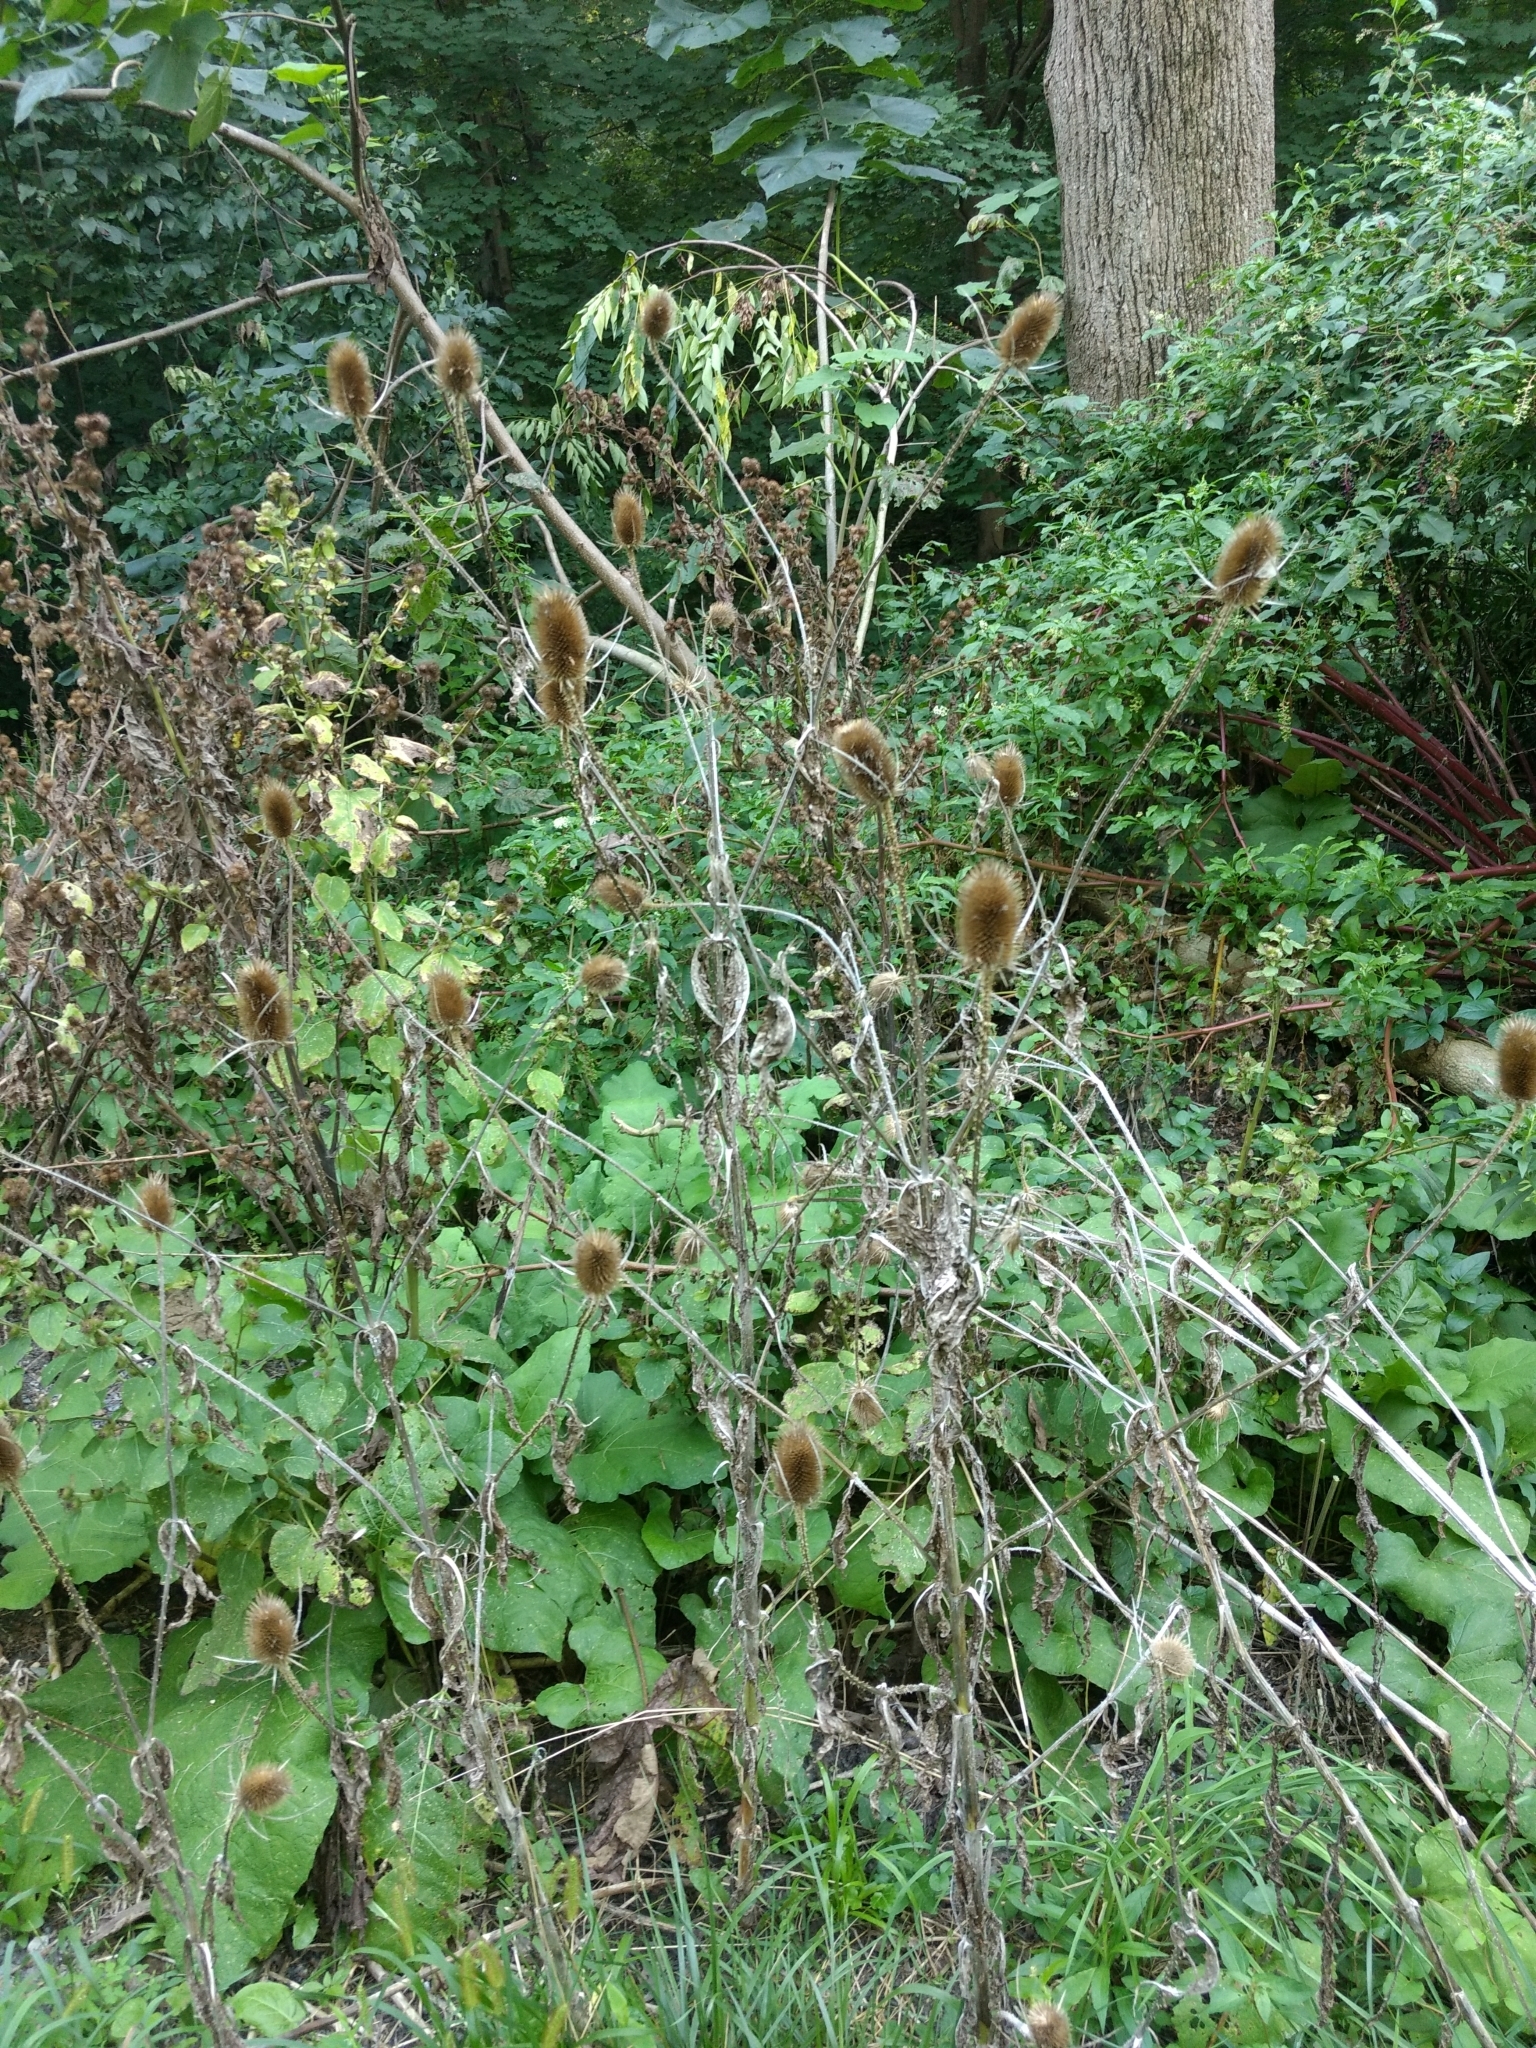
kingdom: Plantae
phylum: Tracheophyta
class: Magnoliopsida
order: Dipsacales
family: Caprifoliaceae
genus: Dipsacus
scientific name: Dipsacus fullonum
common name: Teasel
